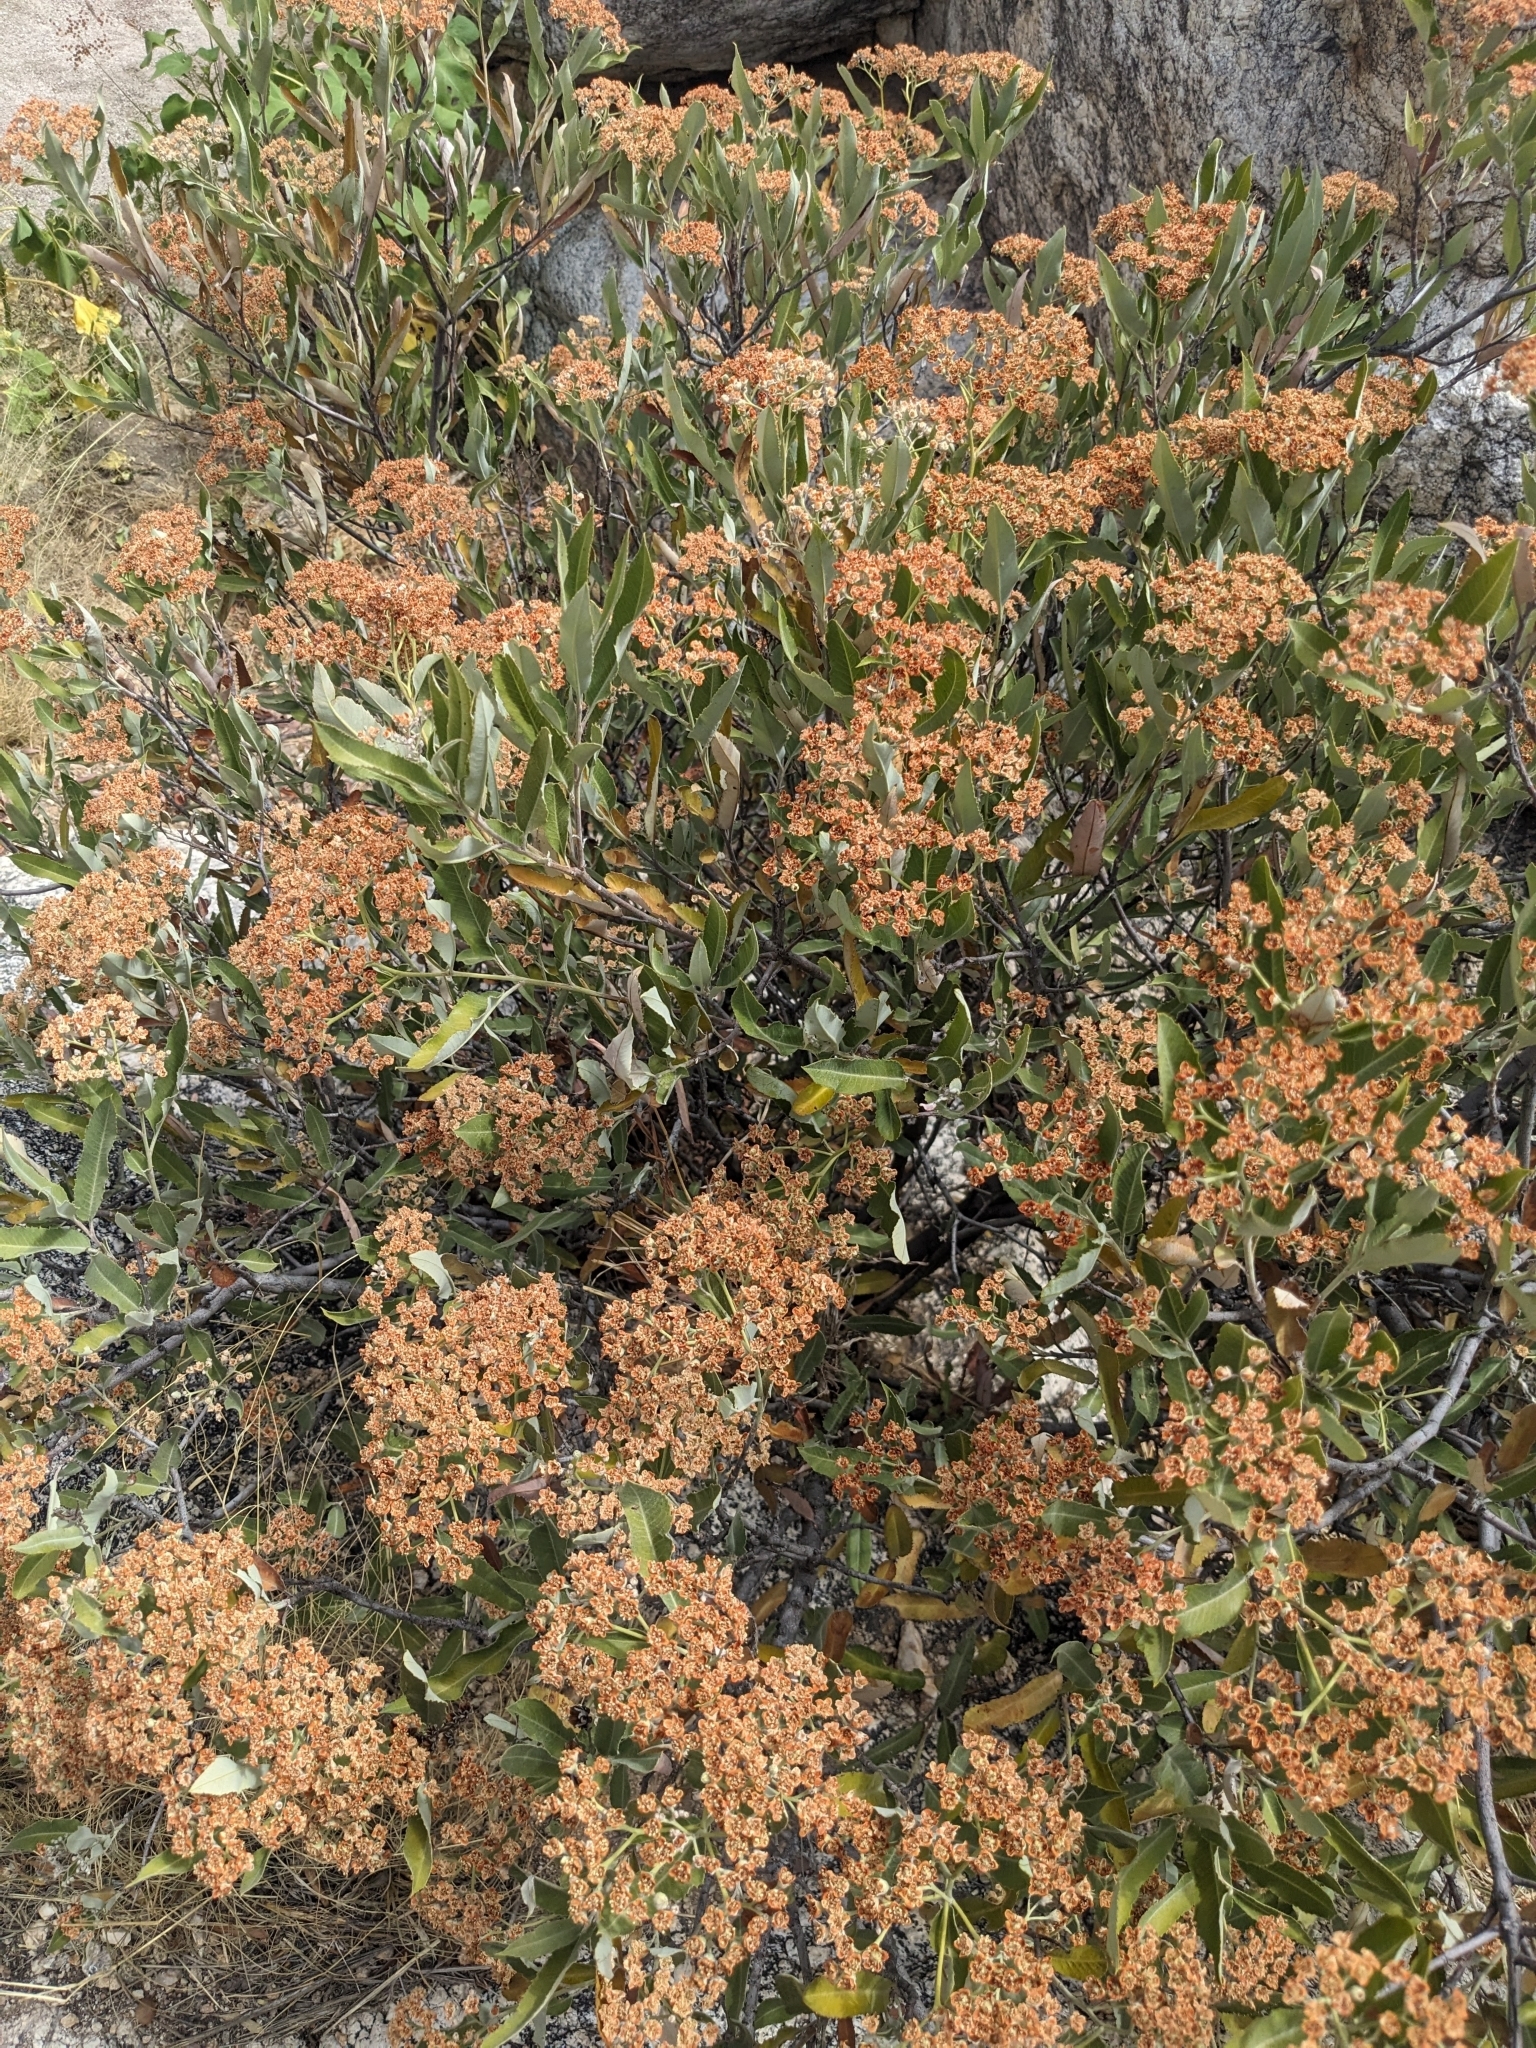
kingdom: Plantae
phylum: Tracheophyta
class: Magnoliopsida
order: Rosales
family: Rosaceae
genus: Vauquelinia
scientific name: Vauquelinia californica
